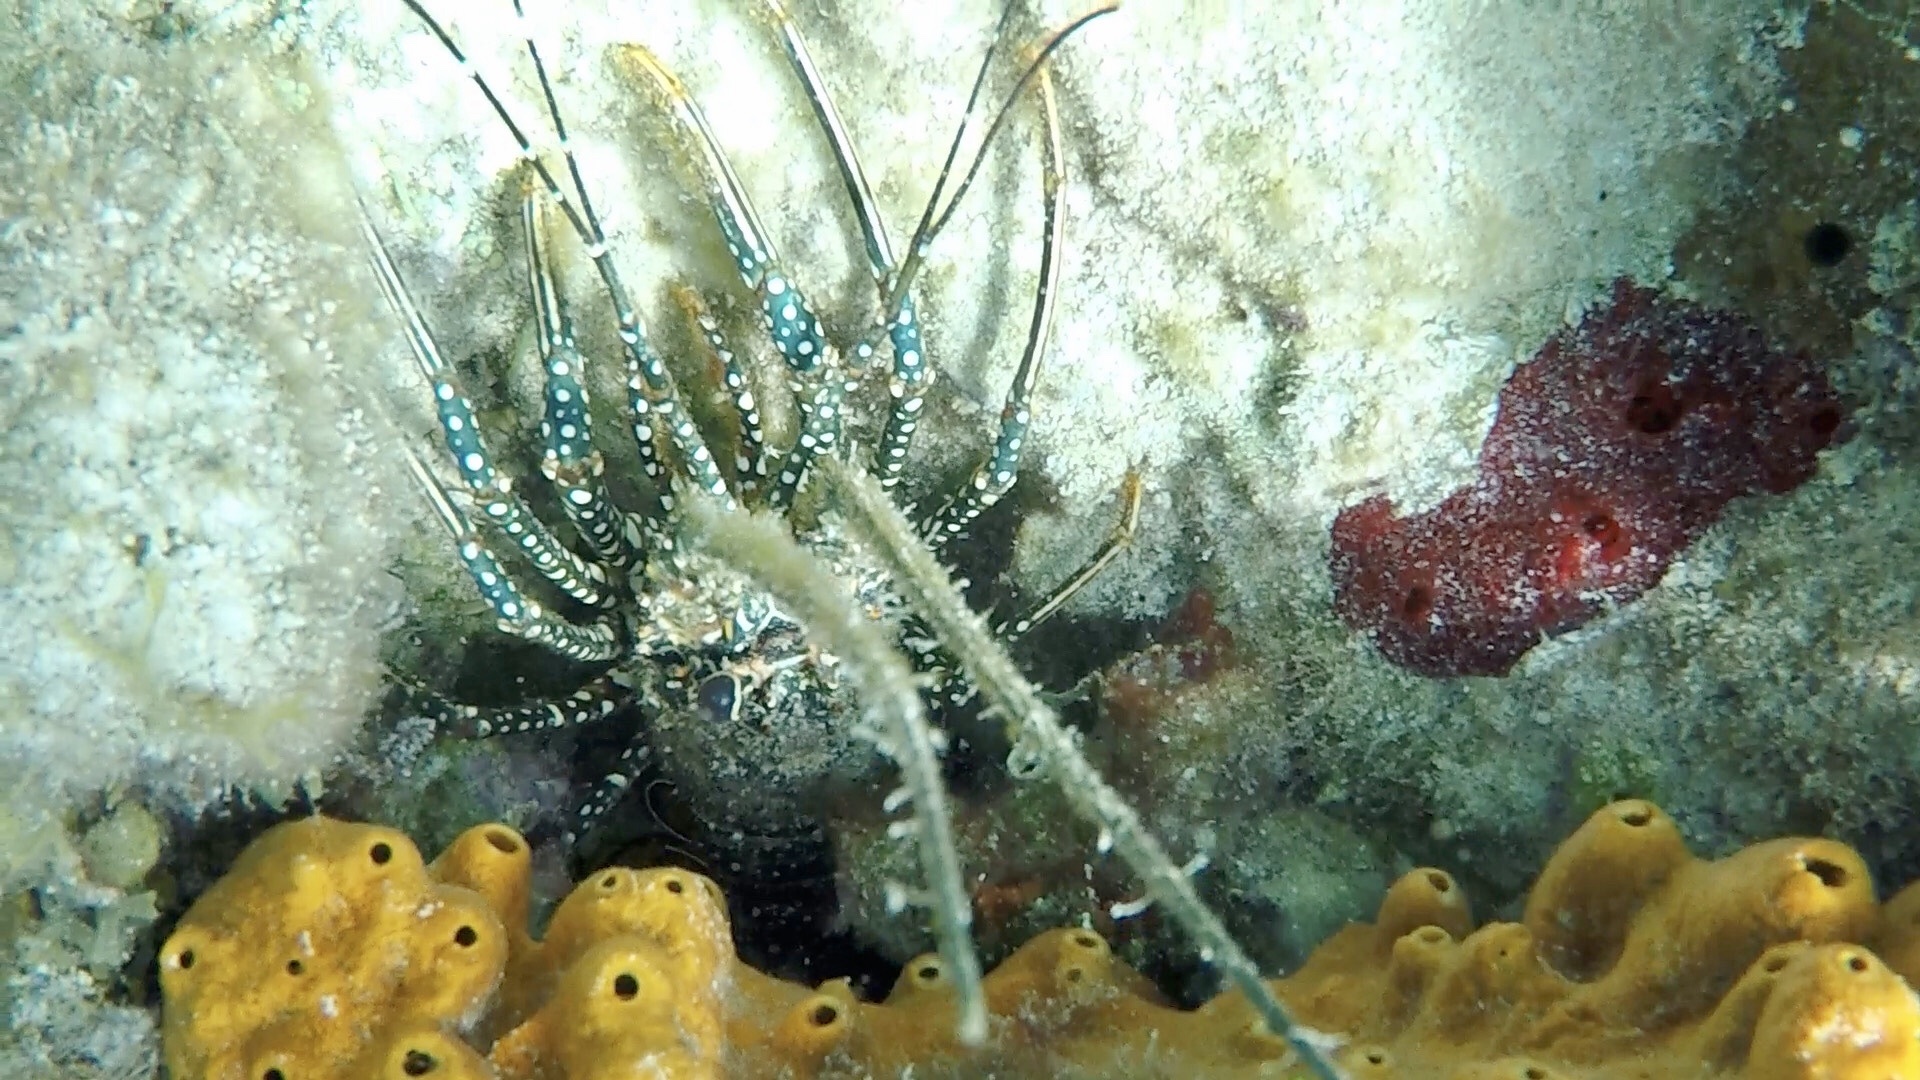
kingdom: Animalia
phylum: Arthropoda
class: Malacostraca
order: Decapoda
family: Palinuridae
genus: Panulirus
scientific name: Panulirus guttatus
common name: Spotted spiny lobster
